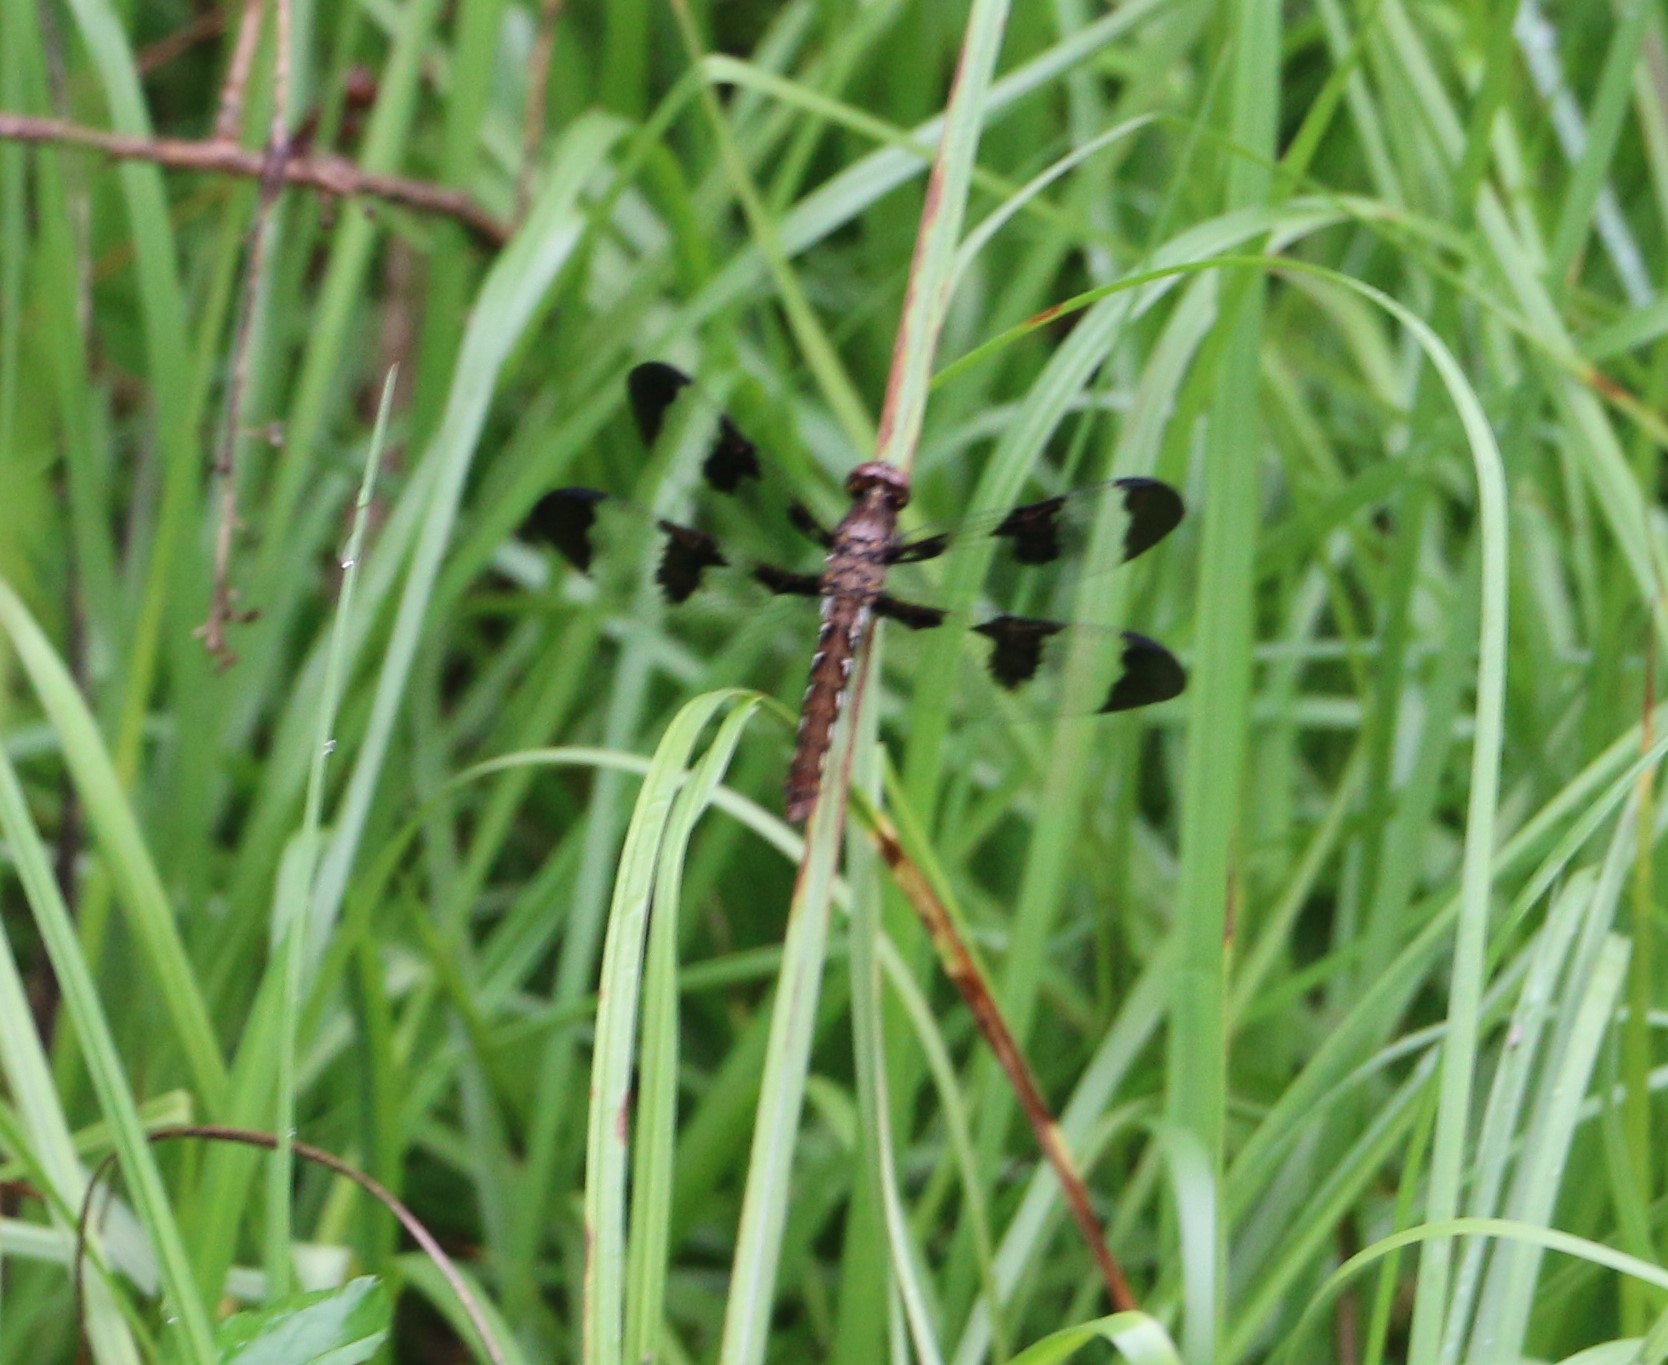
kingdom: Animalia
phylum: Arthropoda
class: Insecta
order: Odonata
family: Libellulidae
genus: Plathemis
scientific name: Plathemis lydia
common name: Common whitetail
